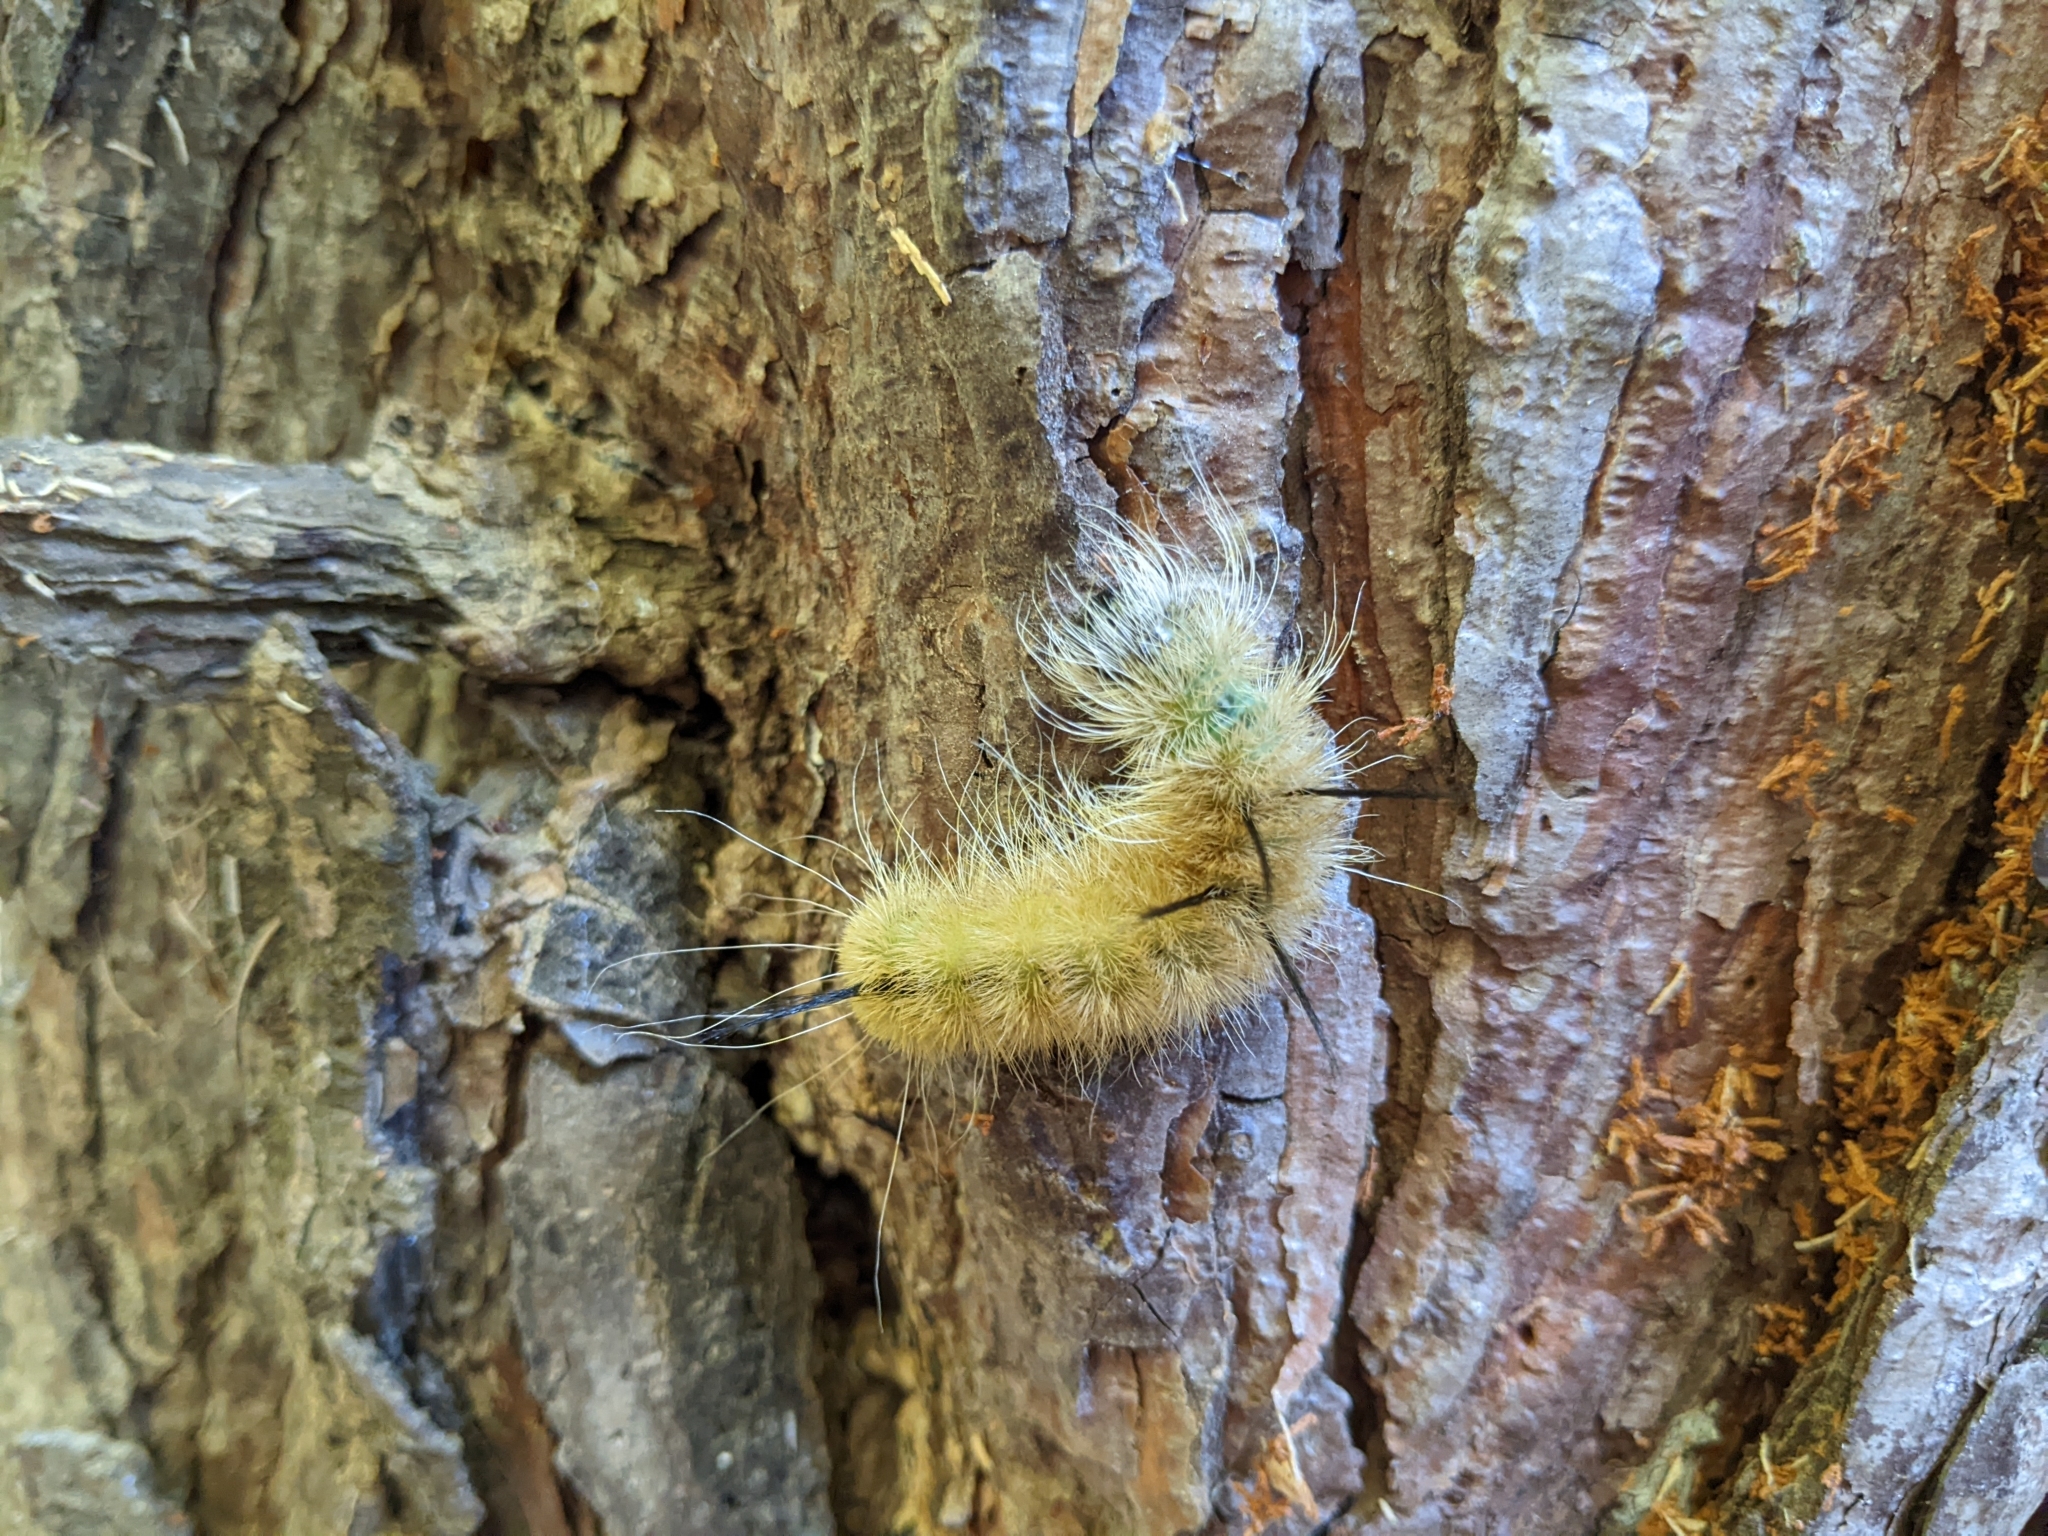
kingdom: Animalia
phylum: Arthropoda
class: Insecta
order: Lepidoptera
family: Noctuidae
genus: Acronicta
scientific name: Acronicta americana
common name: American dagger
